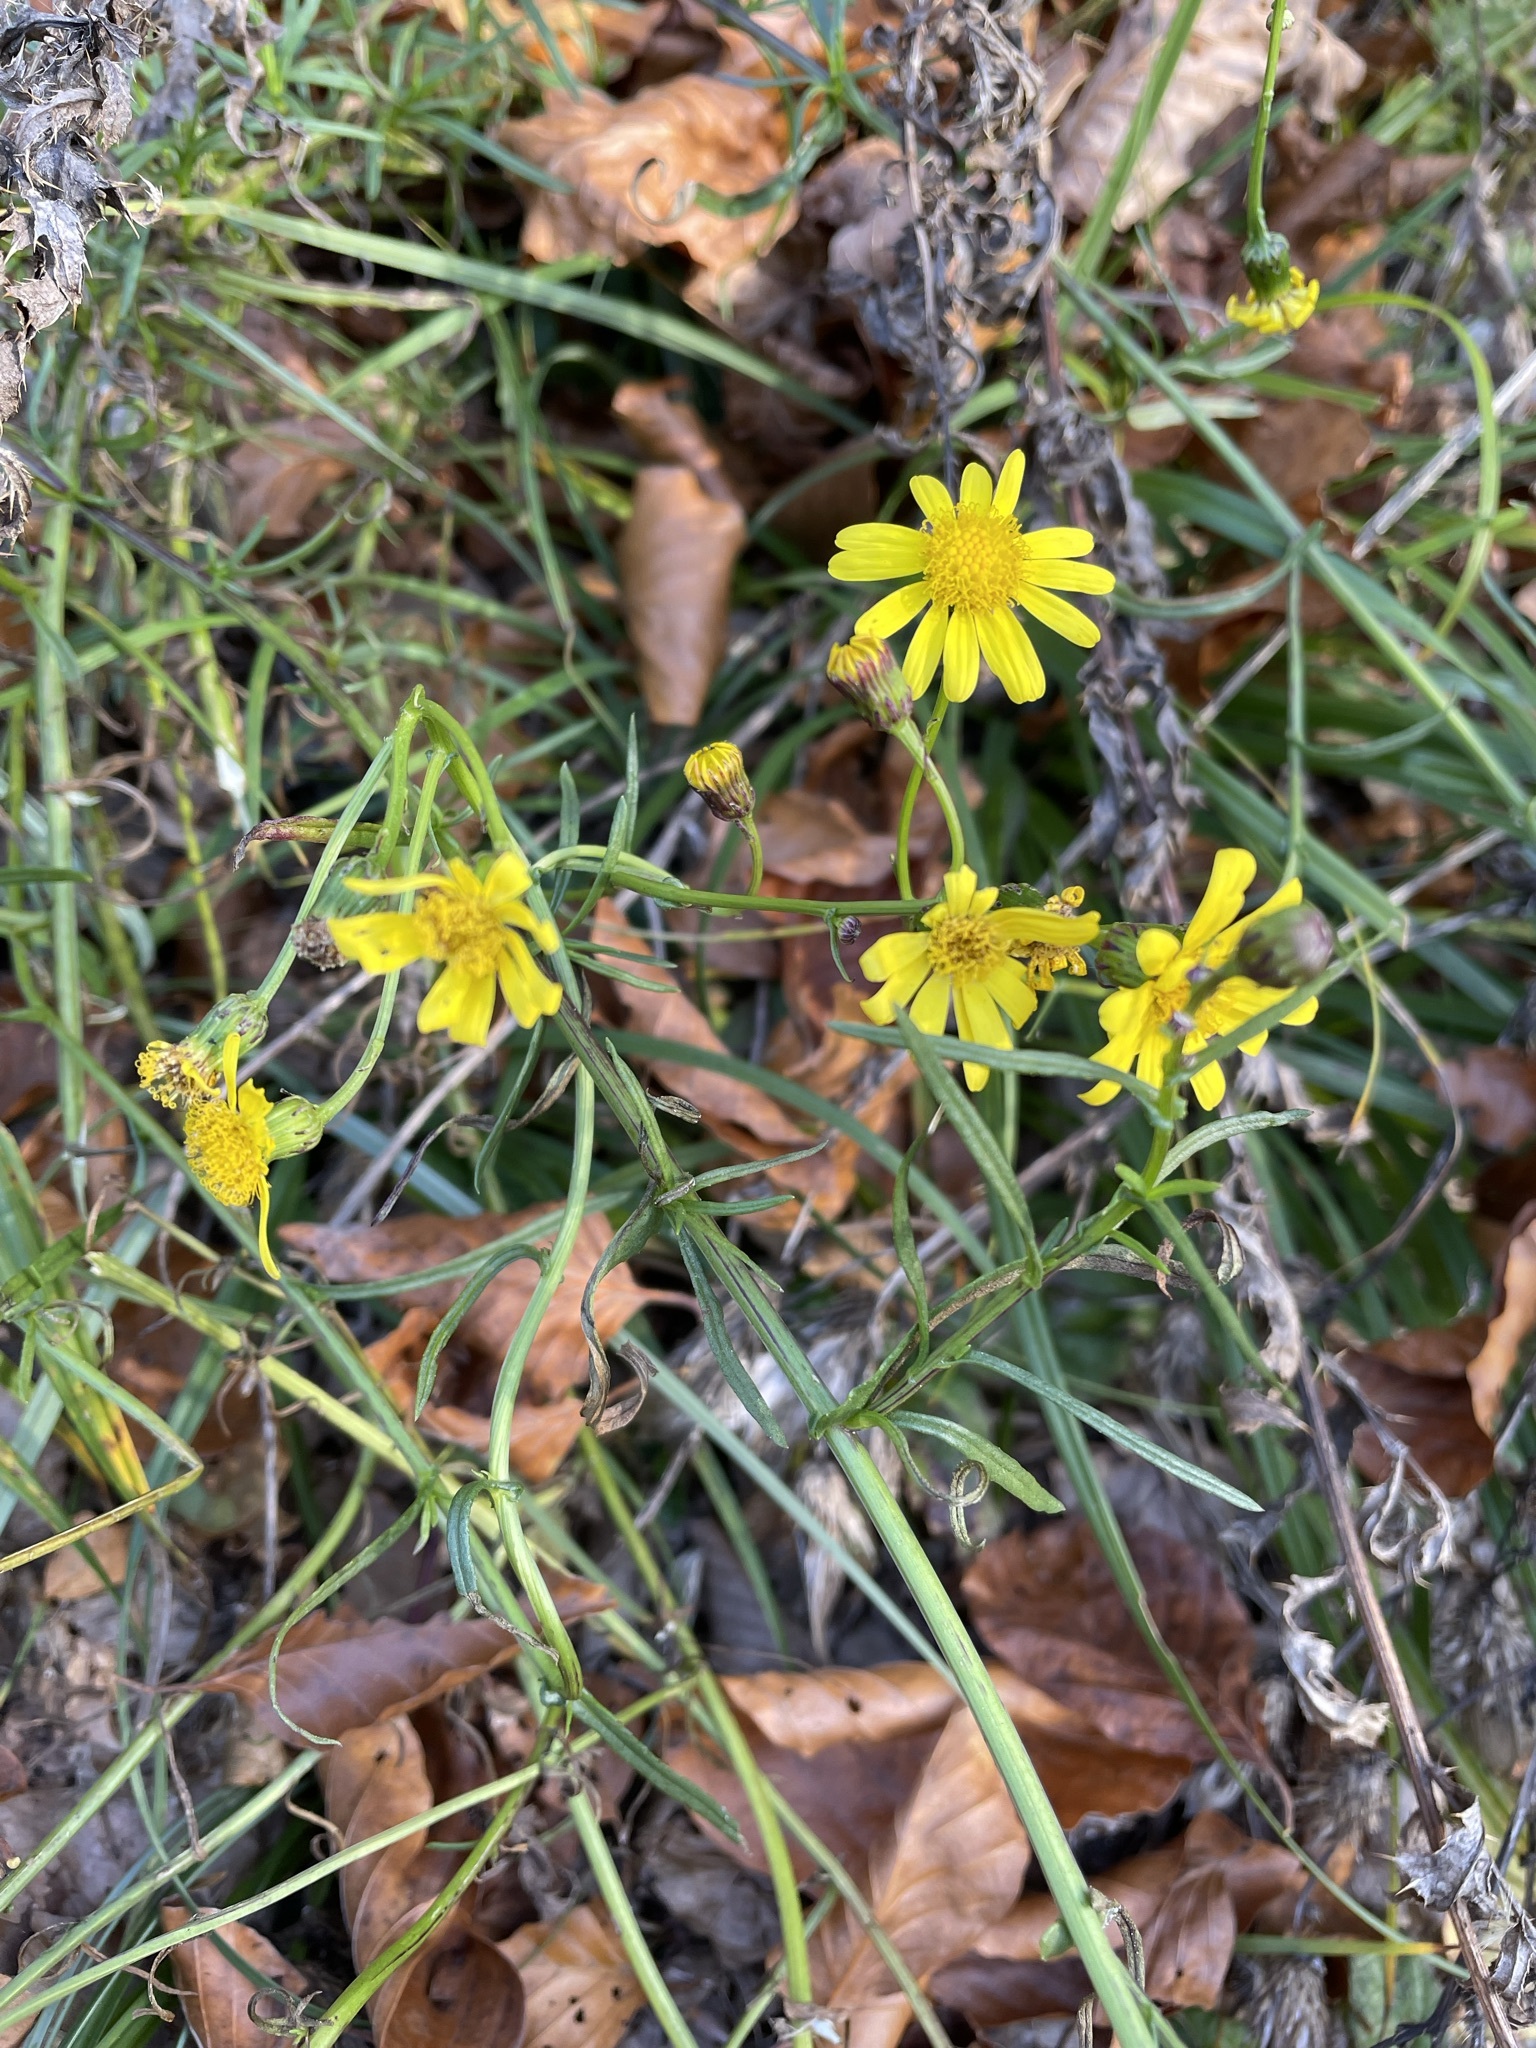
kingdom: Plantae
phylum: Tracheophyta
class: Magnoliopsida
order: Asterales
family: Asteraceae
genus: Senecio
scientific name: Senecio inaequidens
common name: Narrow-leaved ragwort
